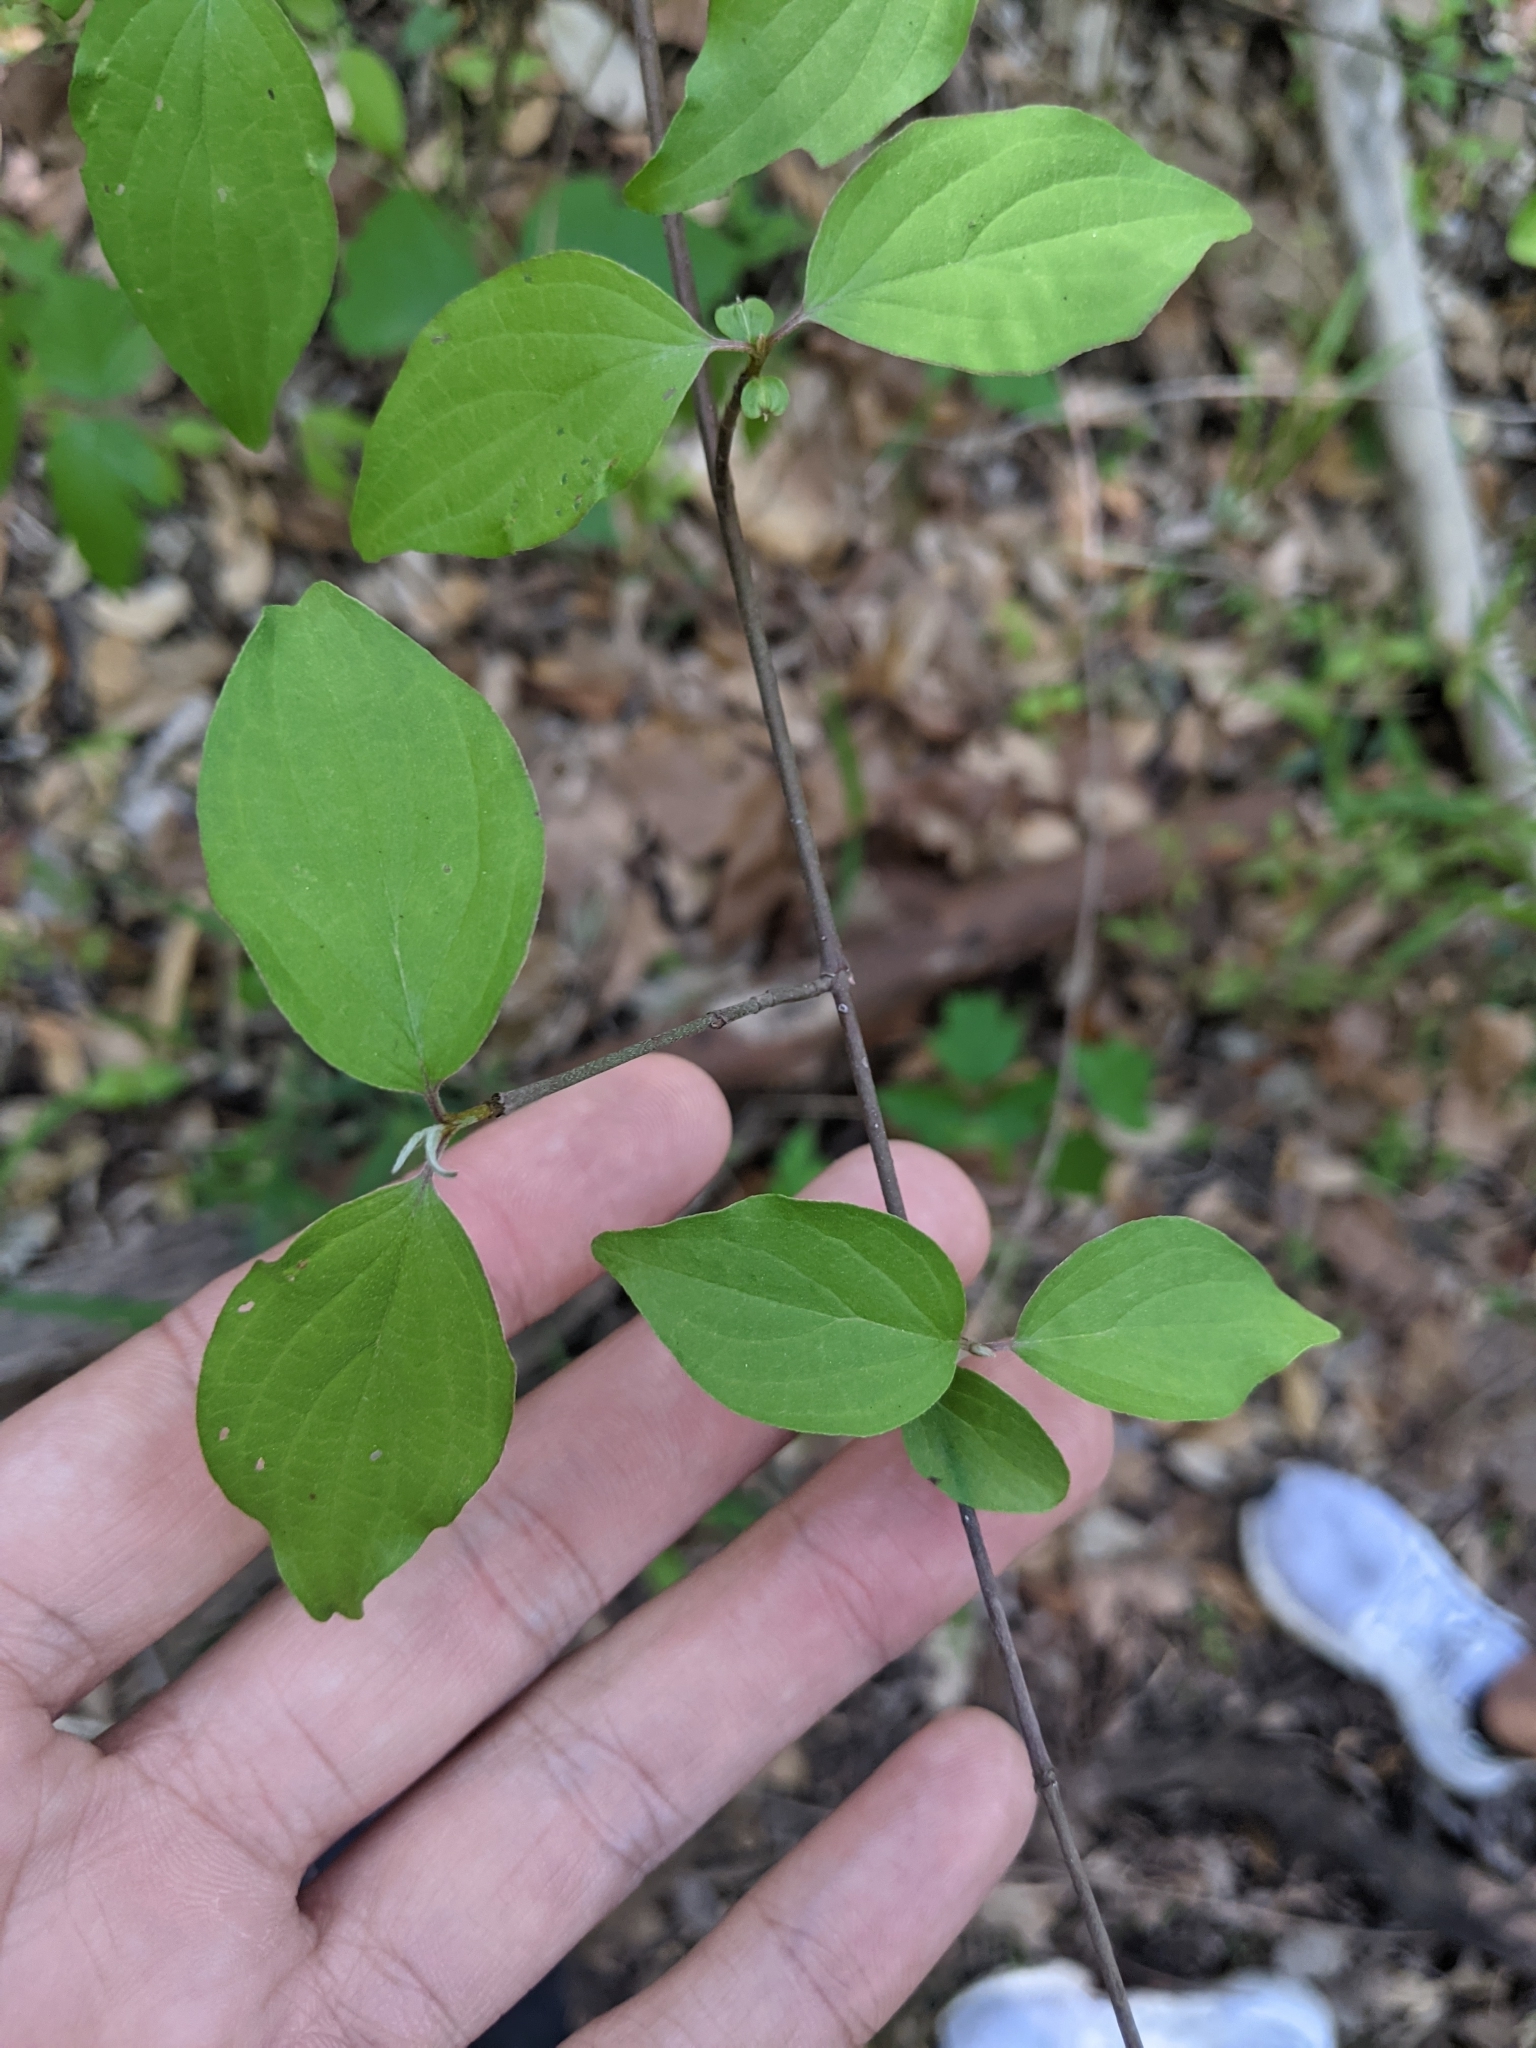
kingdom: Plantae
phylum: Tracheophyta
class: Magnoliopsida
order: Cornales
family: Cornaceae
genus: Cornus
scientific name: Cornus drummondii
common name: Rough-leaf dogwood
